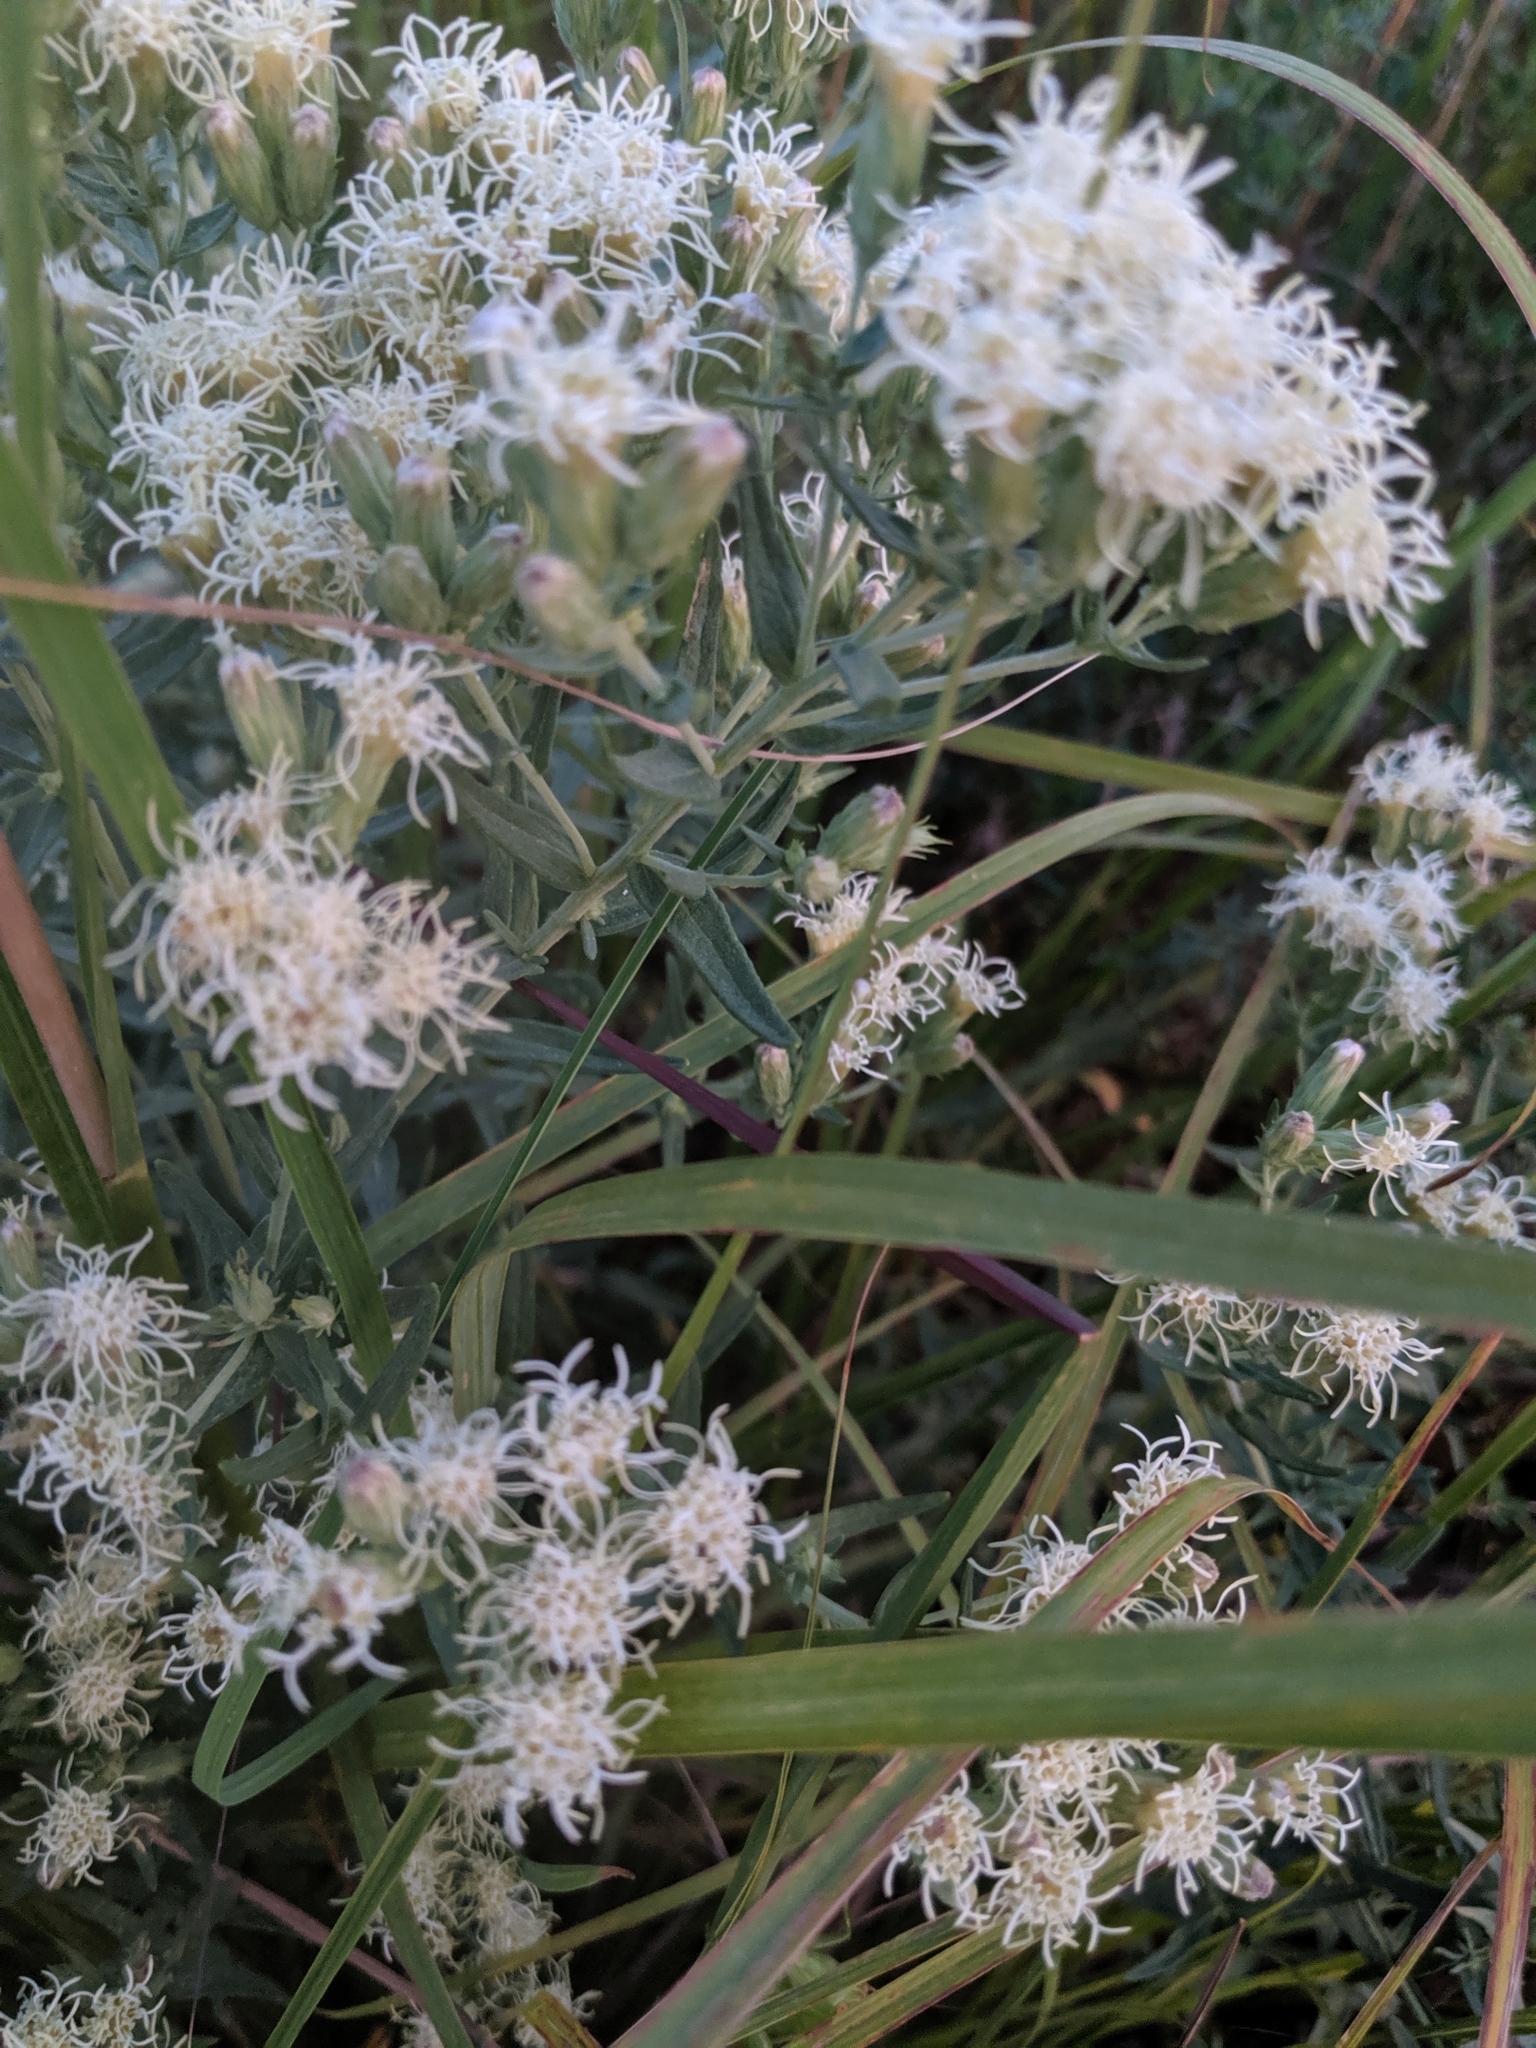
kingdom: Plantae
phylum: Tracheophyta
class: Magnoliopsida
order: Asterales
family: Asteraceae
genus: Brickellia
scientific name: Brickellia eupatorioides
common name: False boneset
